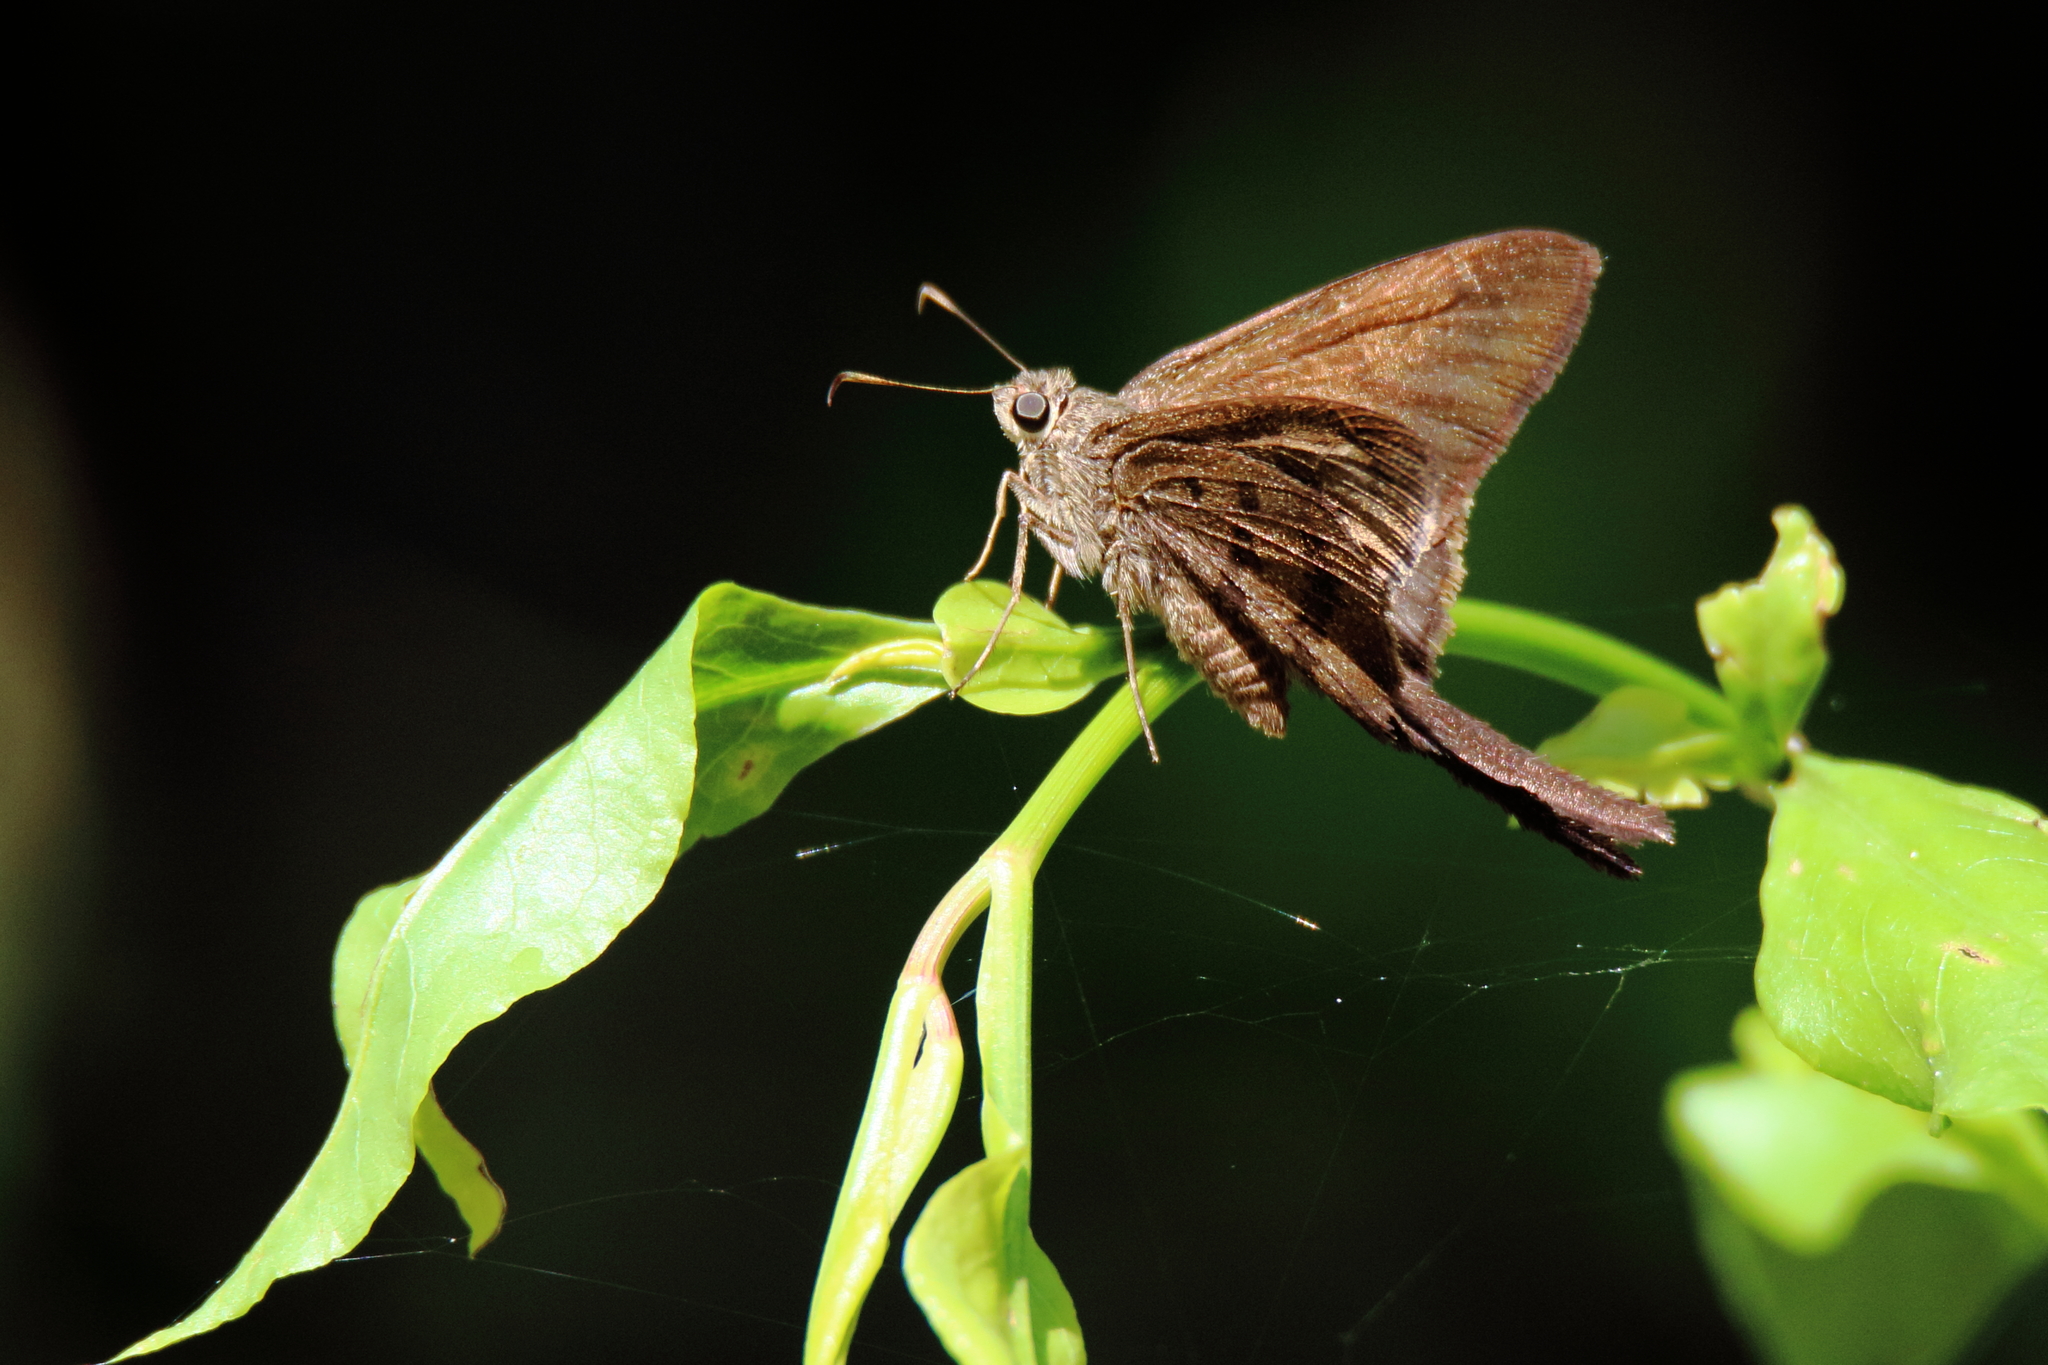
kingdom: Animalia
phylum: Arthropoda
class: Insecta
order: Lepidoptera
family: Hesperiidae
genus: Urbanus
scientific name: Urbanus procne
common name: Brown longtail
